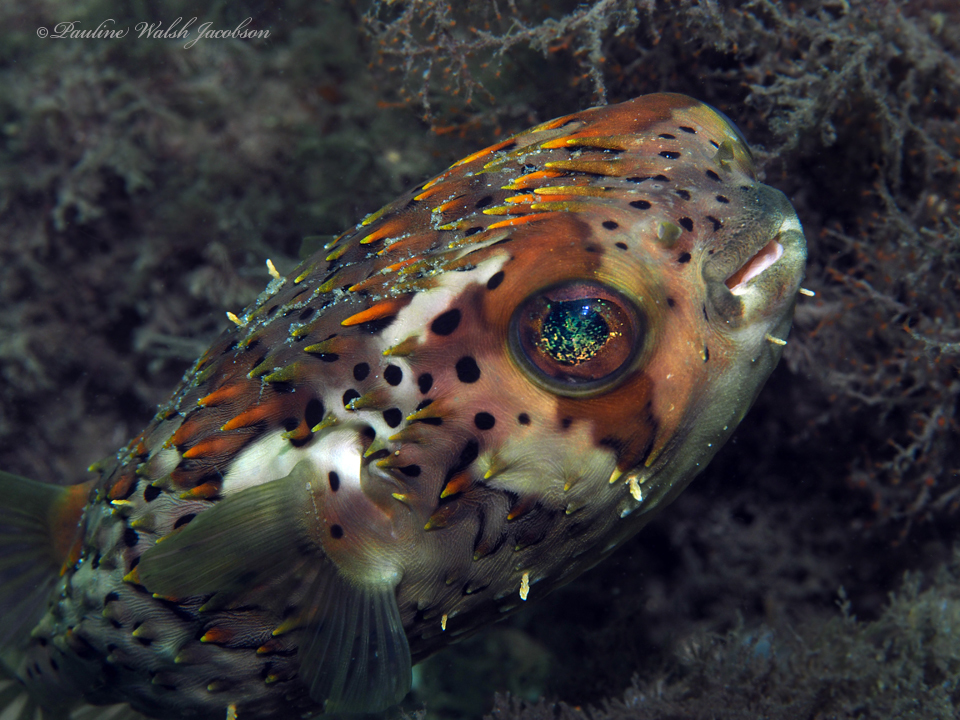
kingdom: Animalia
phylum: Chordata
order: Tetraodontiformes
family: Diodontidae
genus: Diodon
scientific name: Diodon holocanthus
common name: Balloonfish
